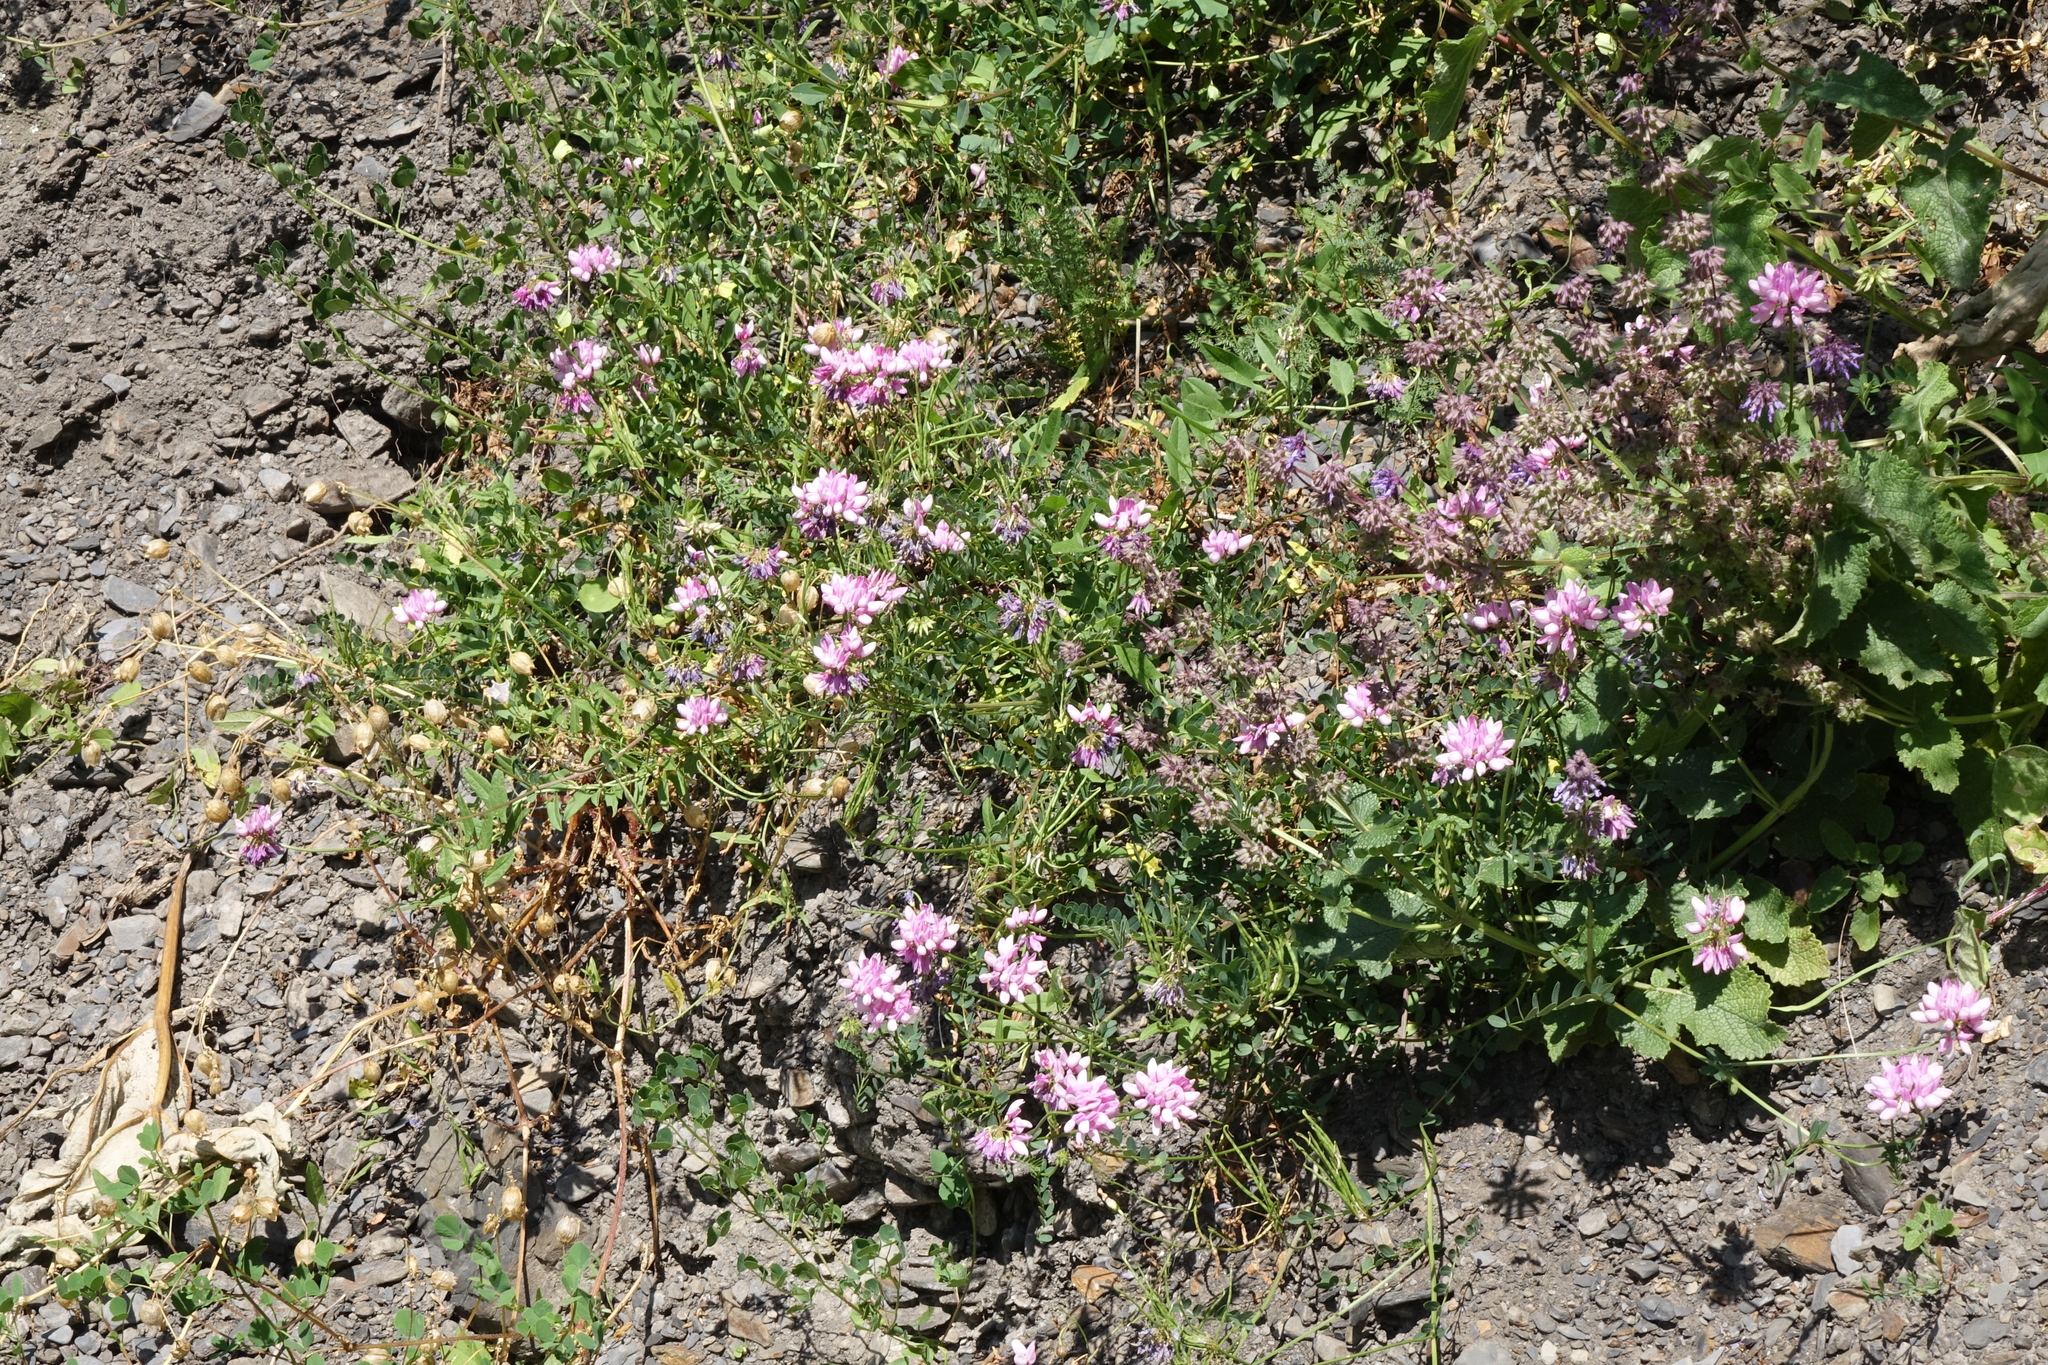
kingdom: Plantae
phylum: Tracheophyta
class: Magnoliopsida
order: Fabales
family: Fabaceae
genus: Coronilla
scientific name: Coronilla varia
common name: Crownvetch
